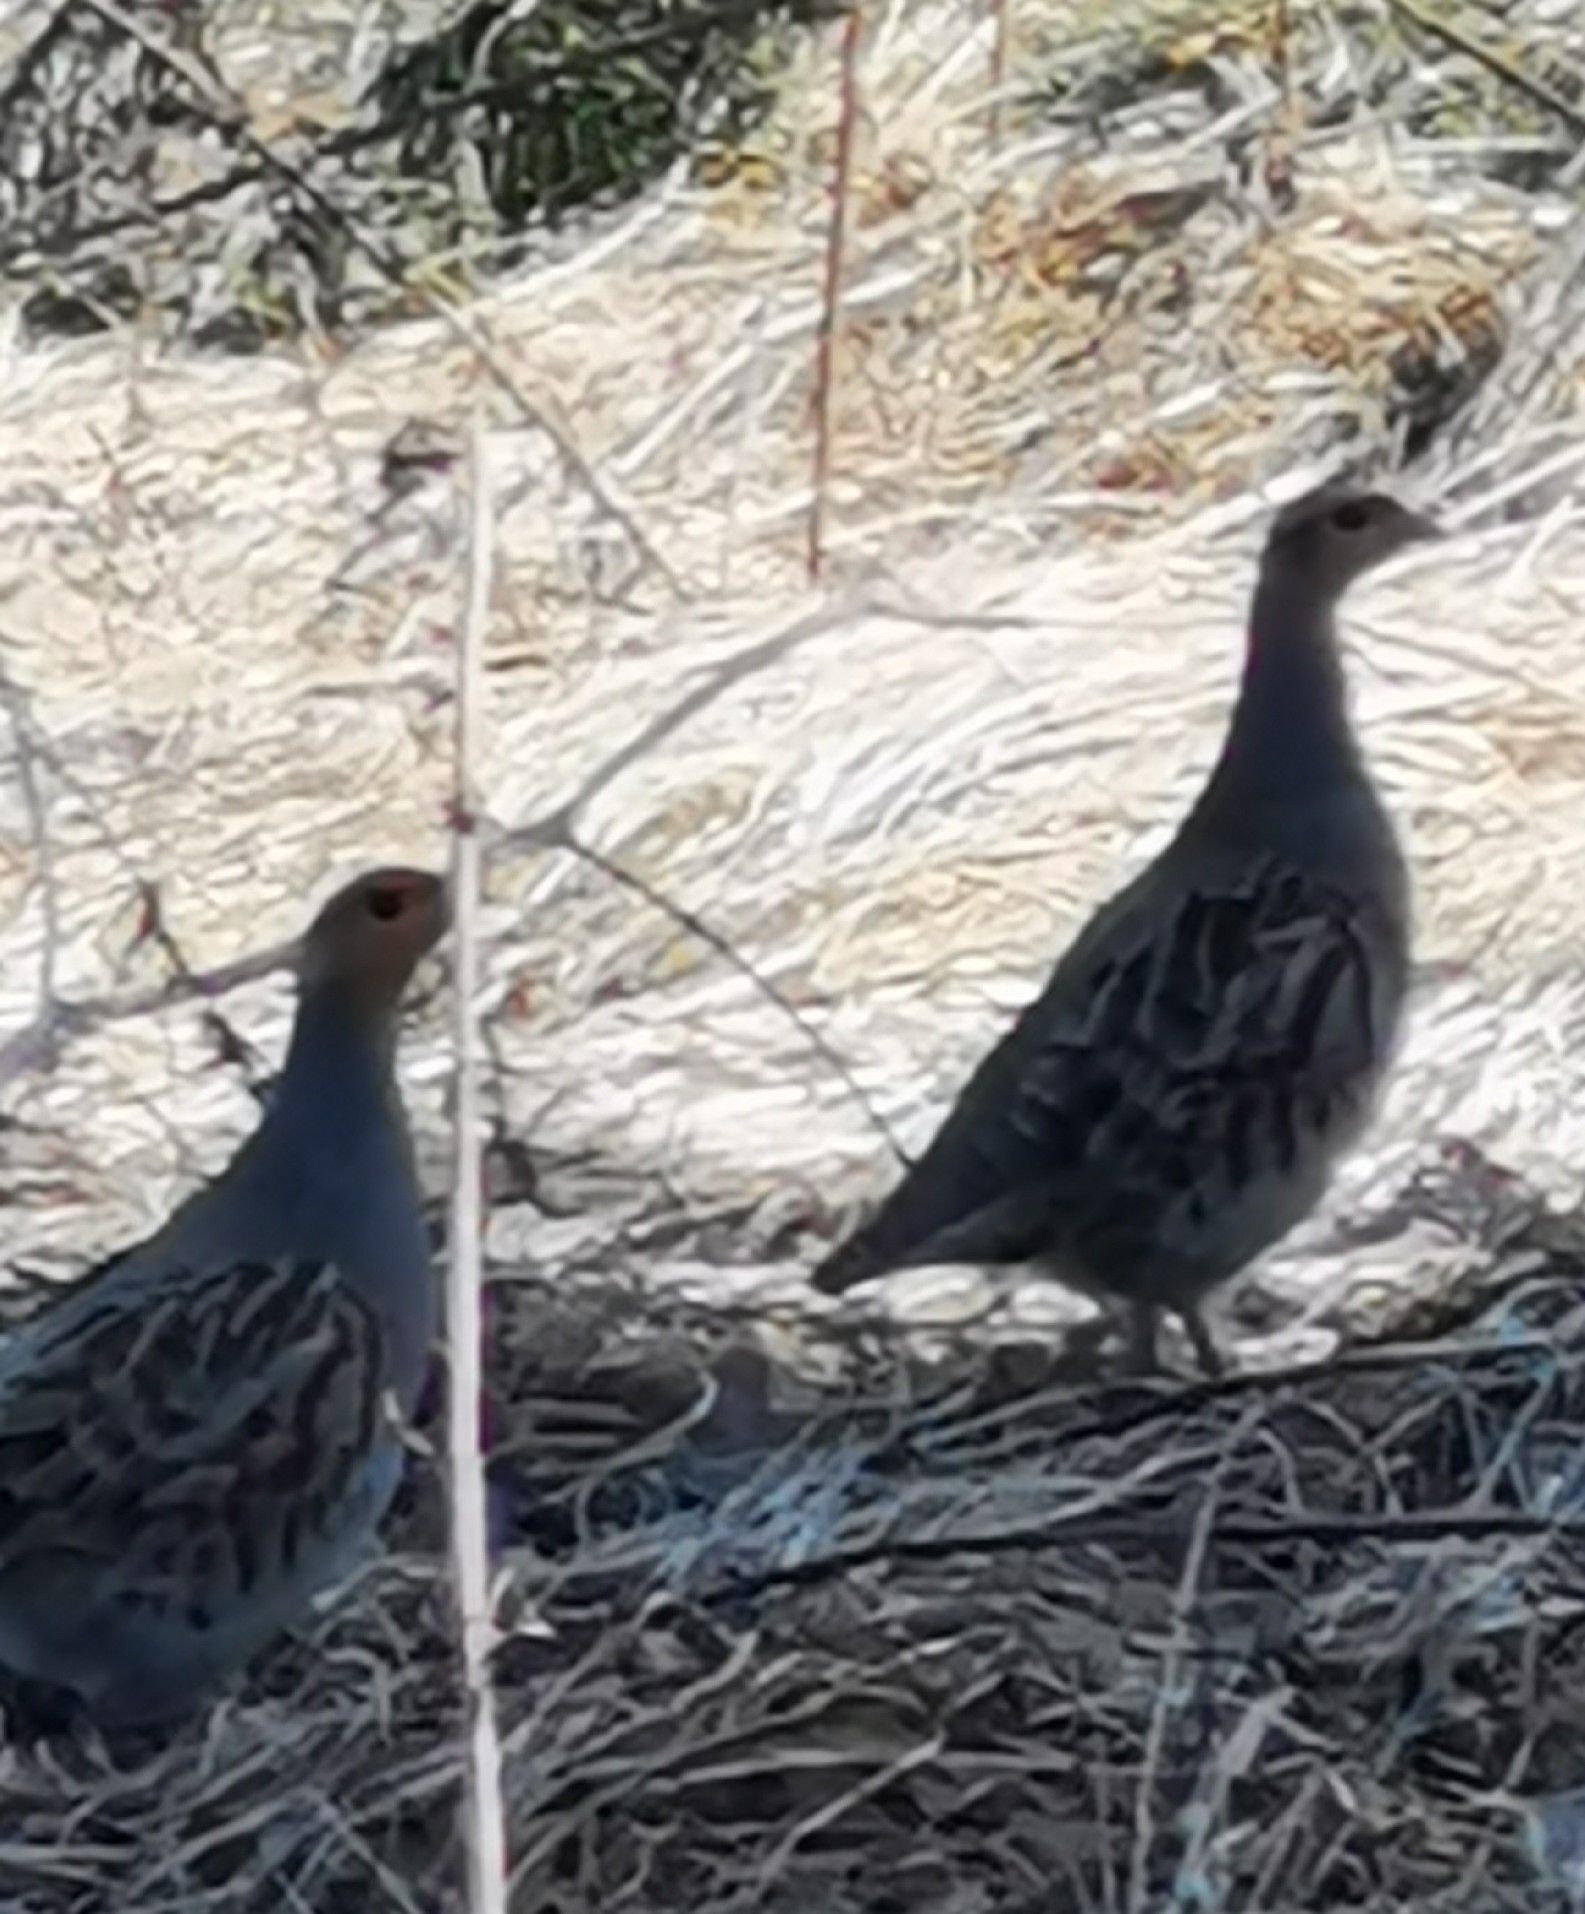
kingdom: Animalia
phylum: Chordata
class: Aves
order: Galliformes
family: Phasianidae
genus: Perdix
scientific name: Perdix perdix
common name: Grey partridge
